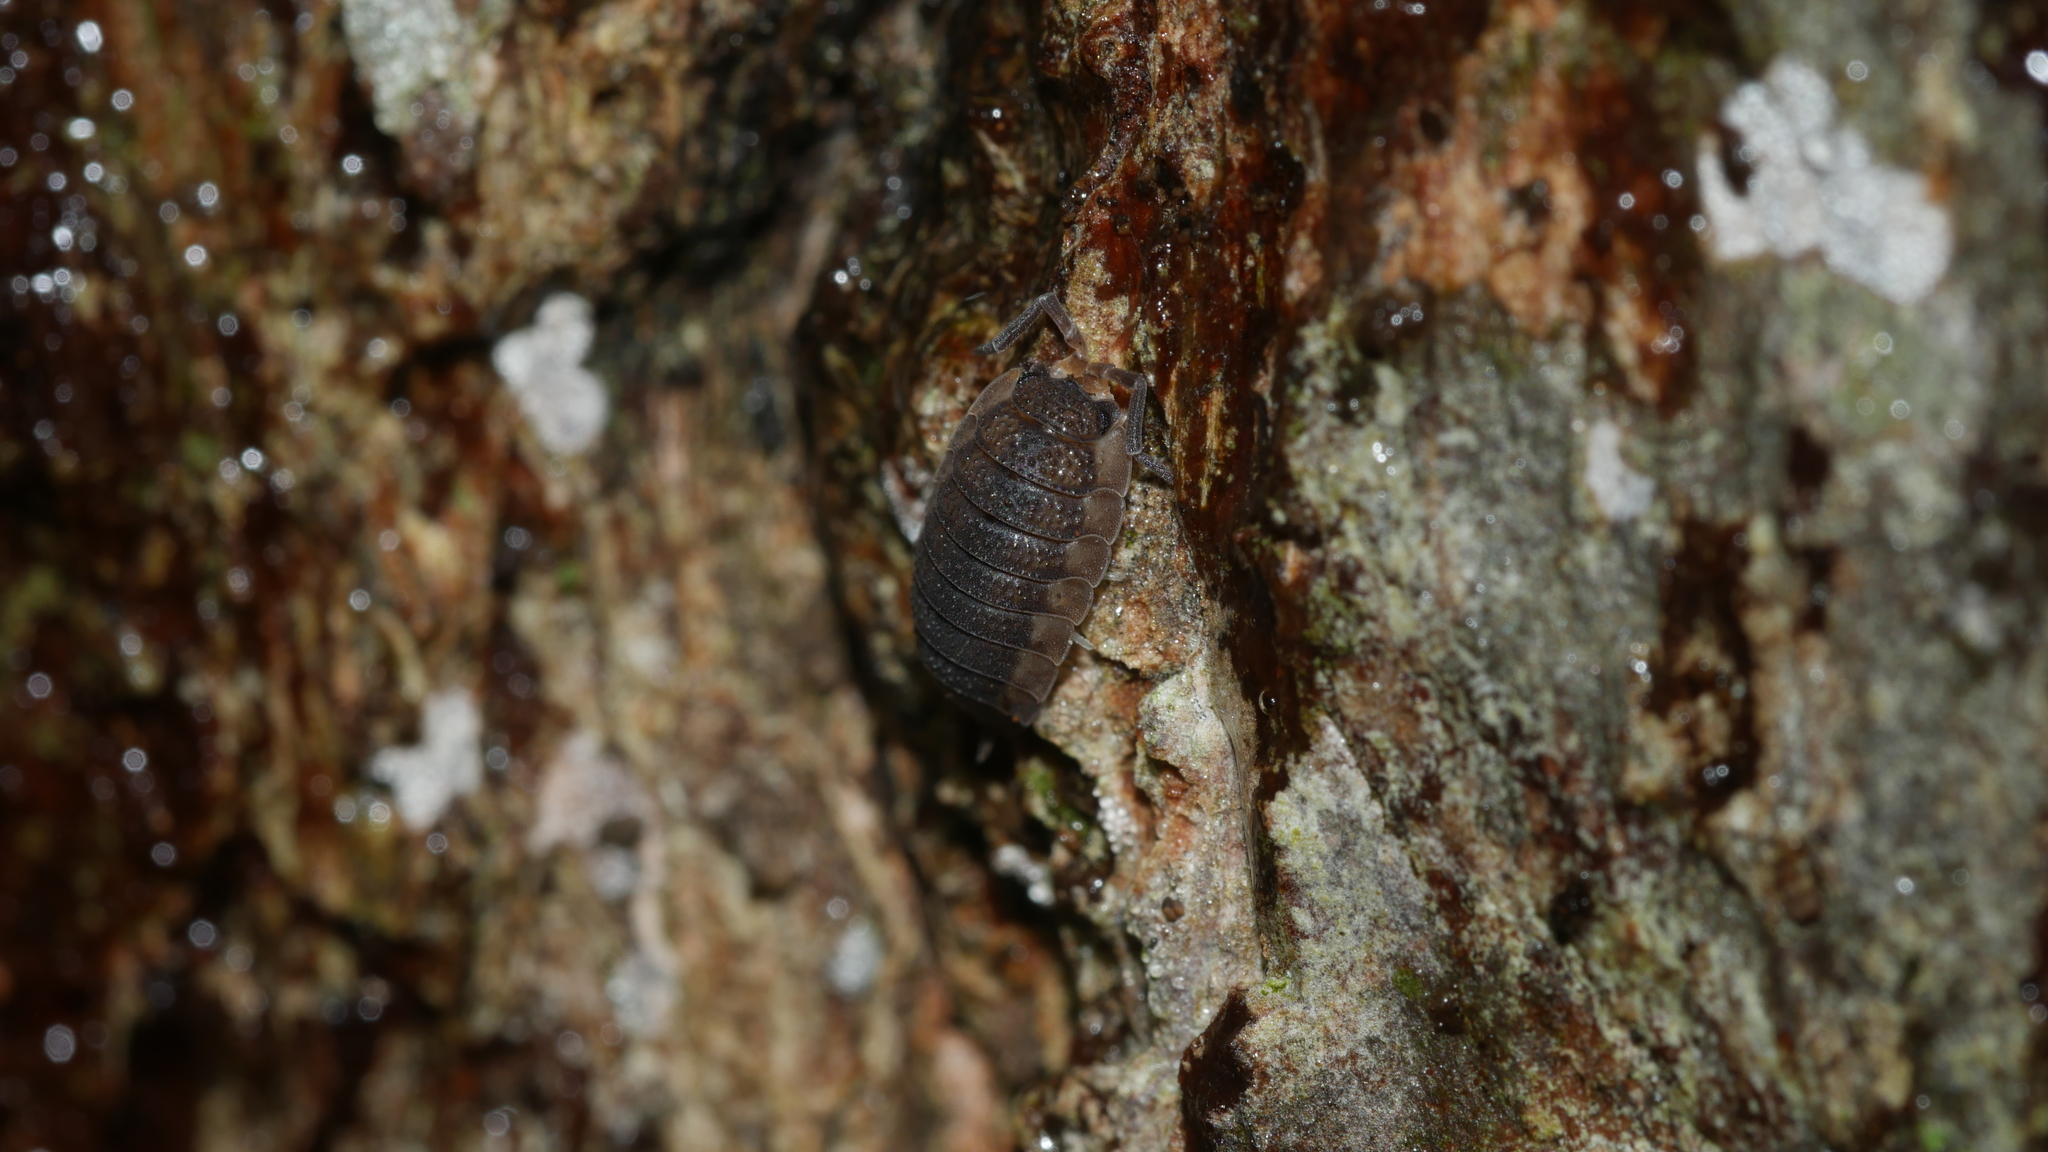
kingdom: Animalia
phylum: Arthropoda
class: Malacostraca
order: Isopoda
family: Porcellionidae
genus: Porcellio
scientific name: Porcellio scaber
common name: Common rough woodlouse
